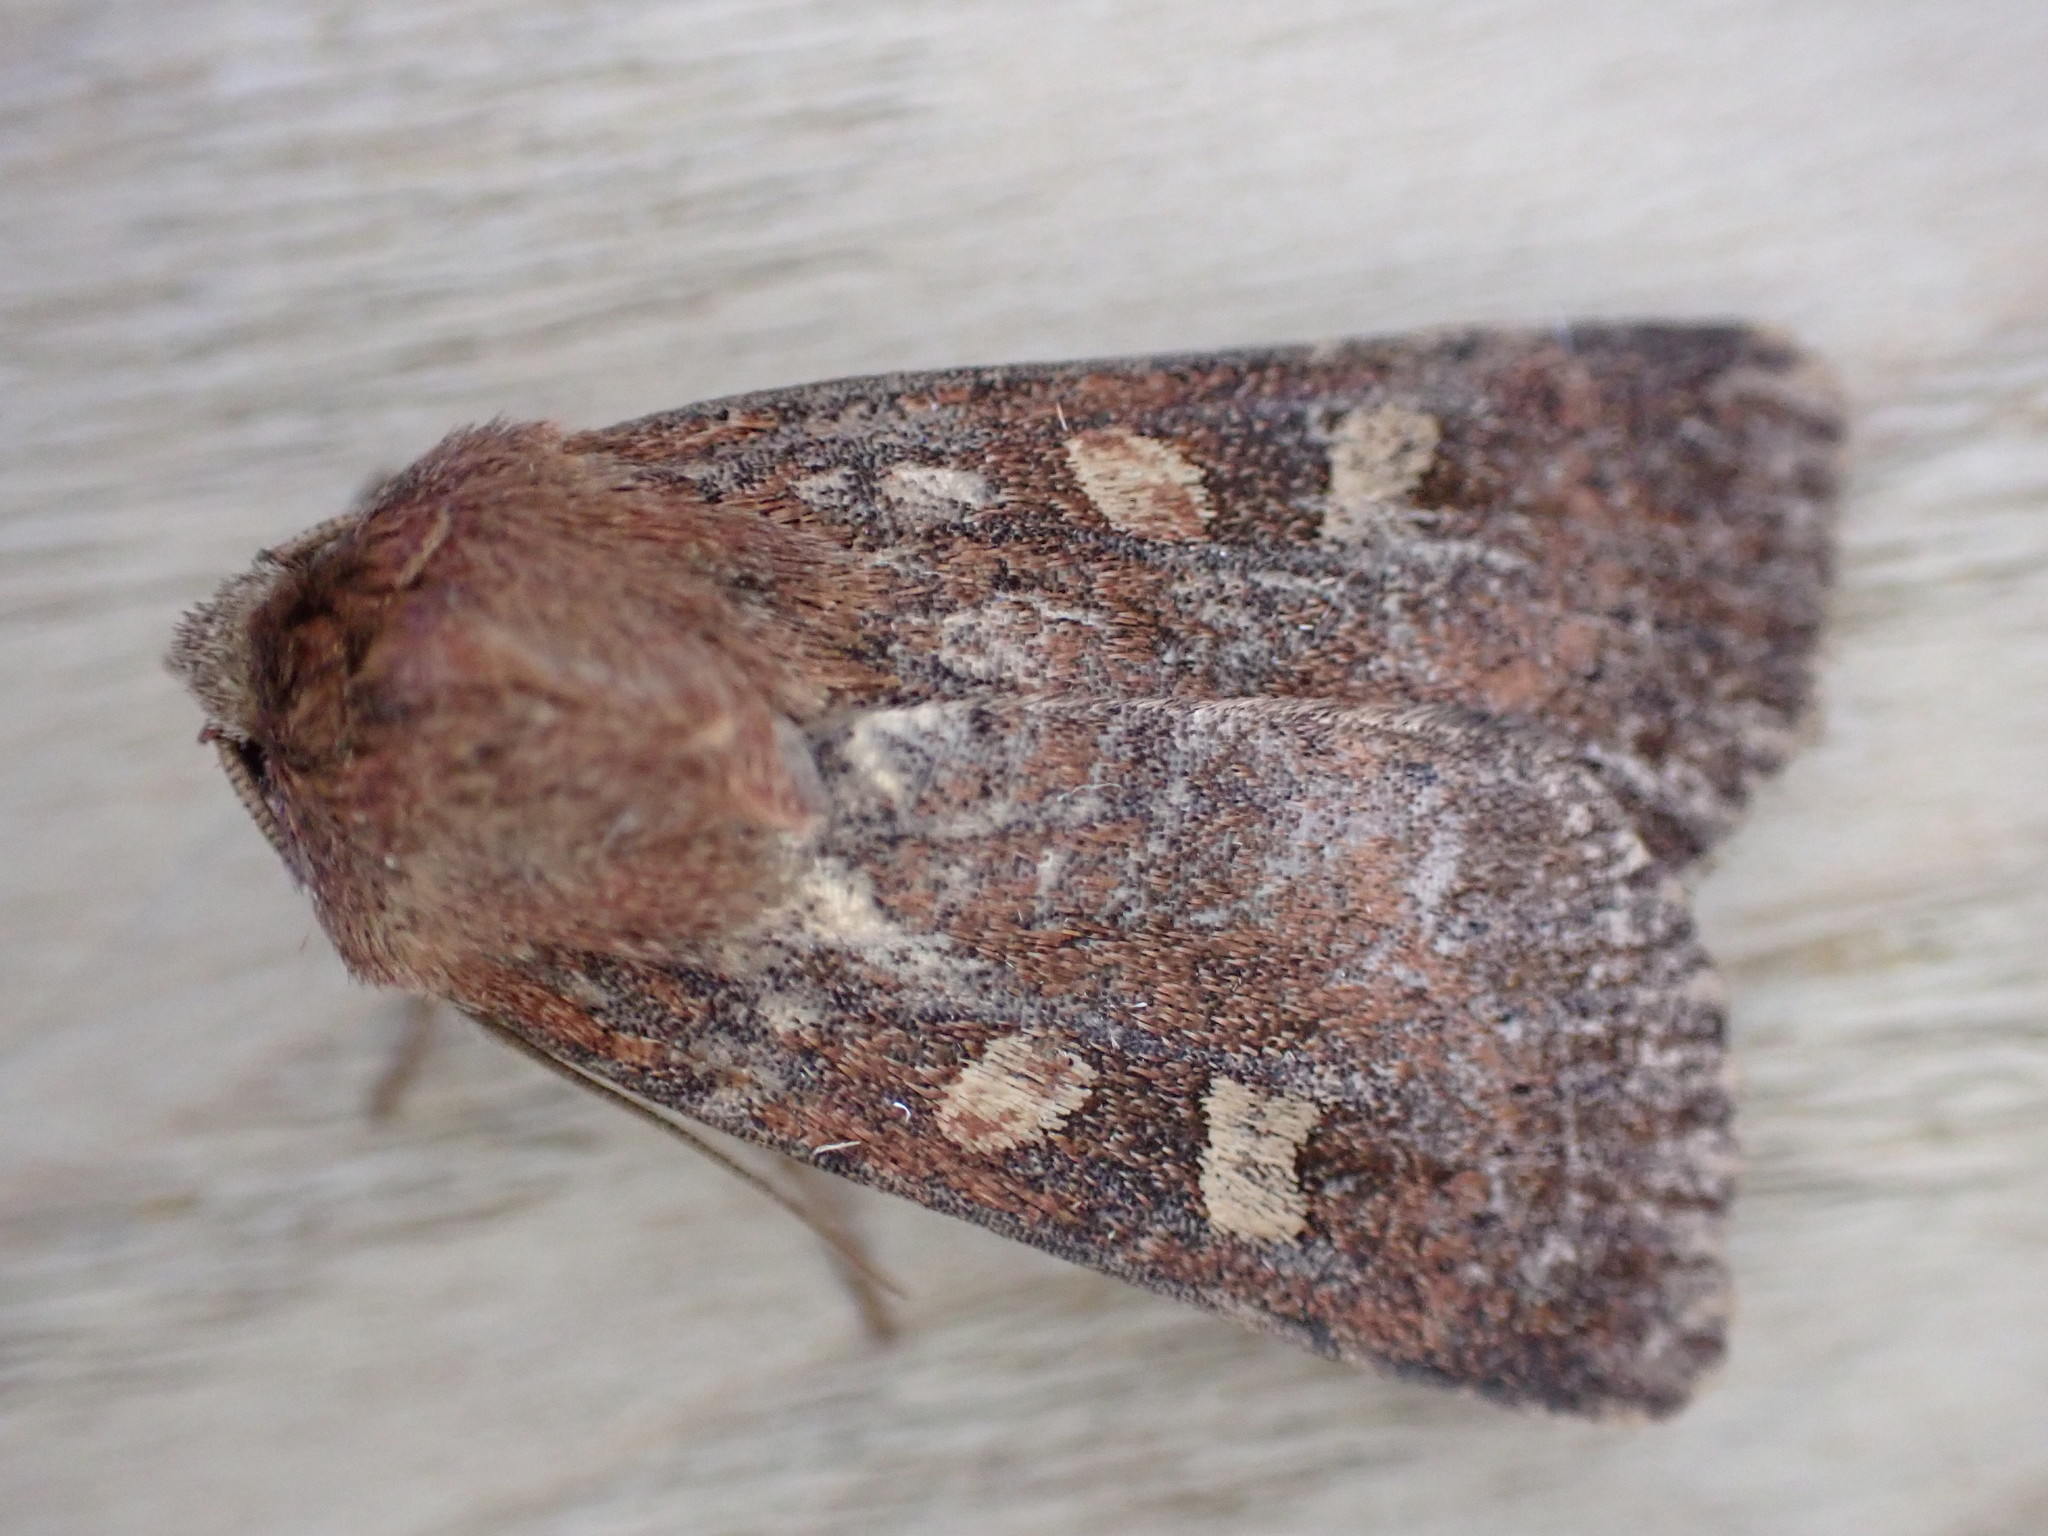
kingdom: Animalia
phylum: Arthropoda
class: Insecta
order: Lepidoptera
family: Noctuidae
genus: Xestia
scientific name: Xestia xanthographa
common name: Square-spot rustic
